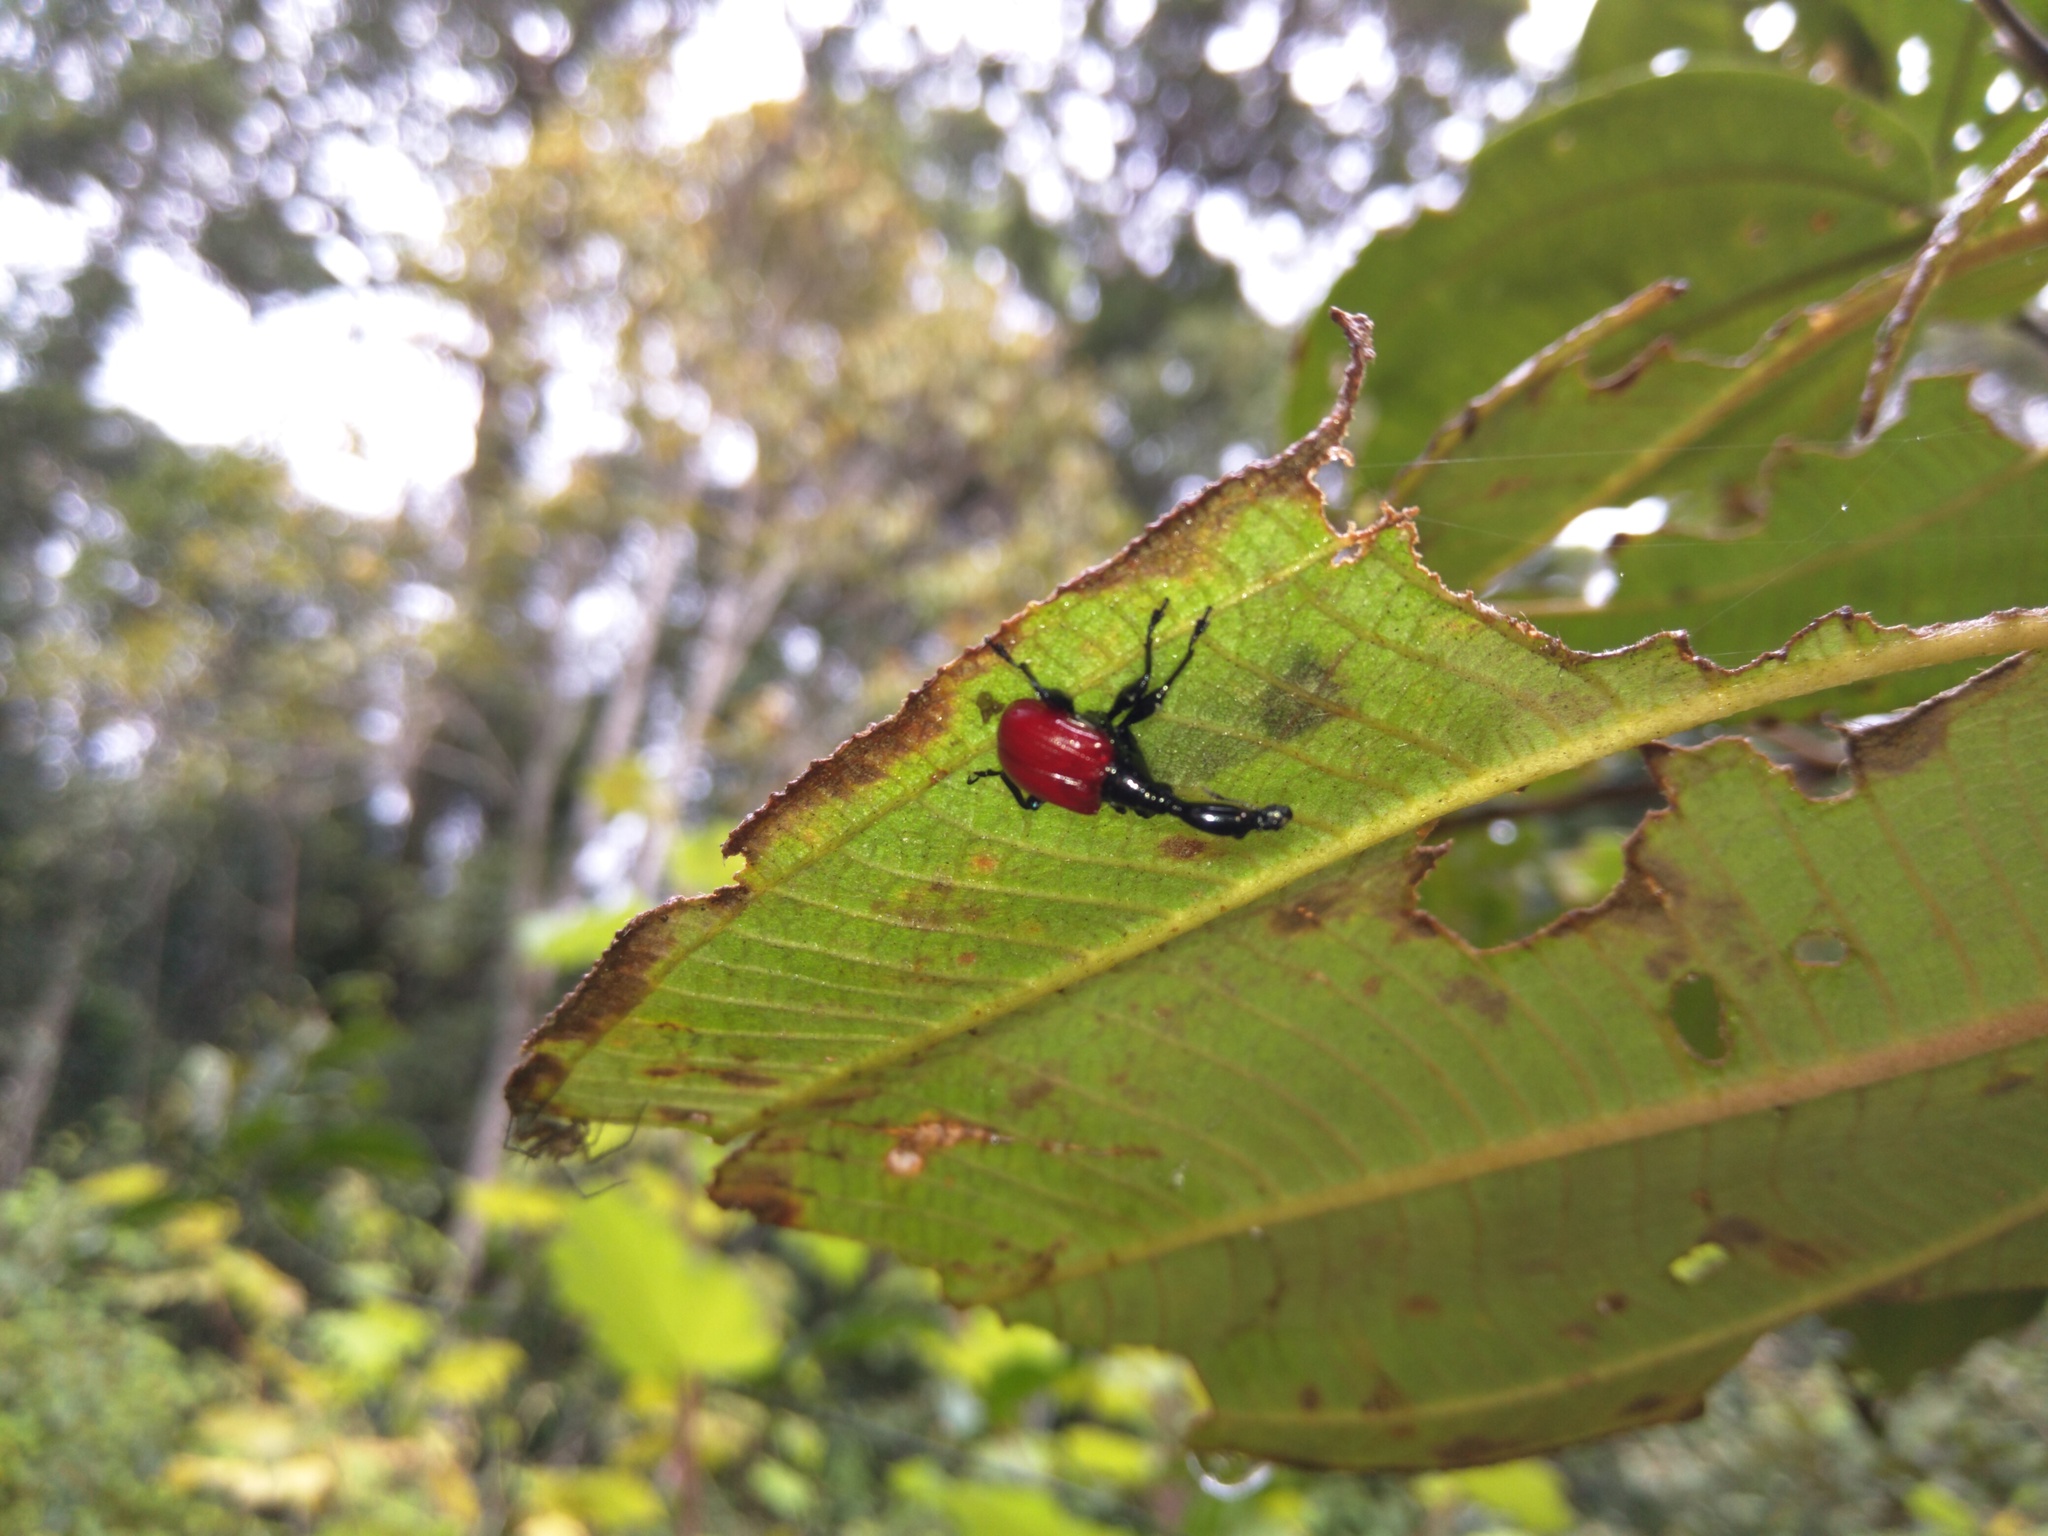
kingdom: Animalia
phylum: Arthropoda
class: Insecta
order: Coleoptera
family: Attelabidae
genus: Trachelophorus
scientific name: Trachelophorus giraffa
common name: Giraffe weevil
